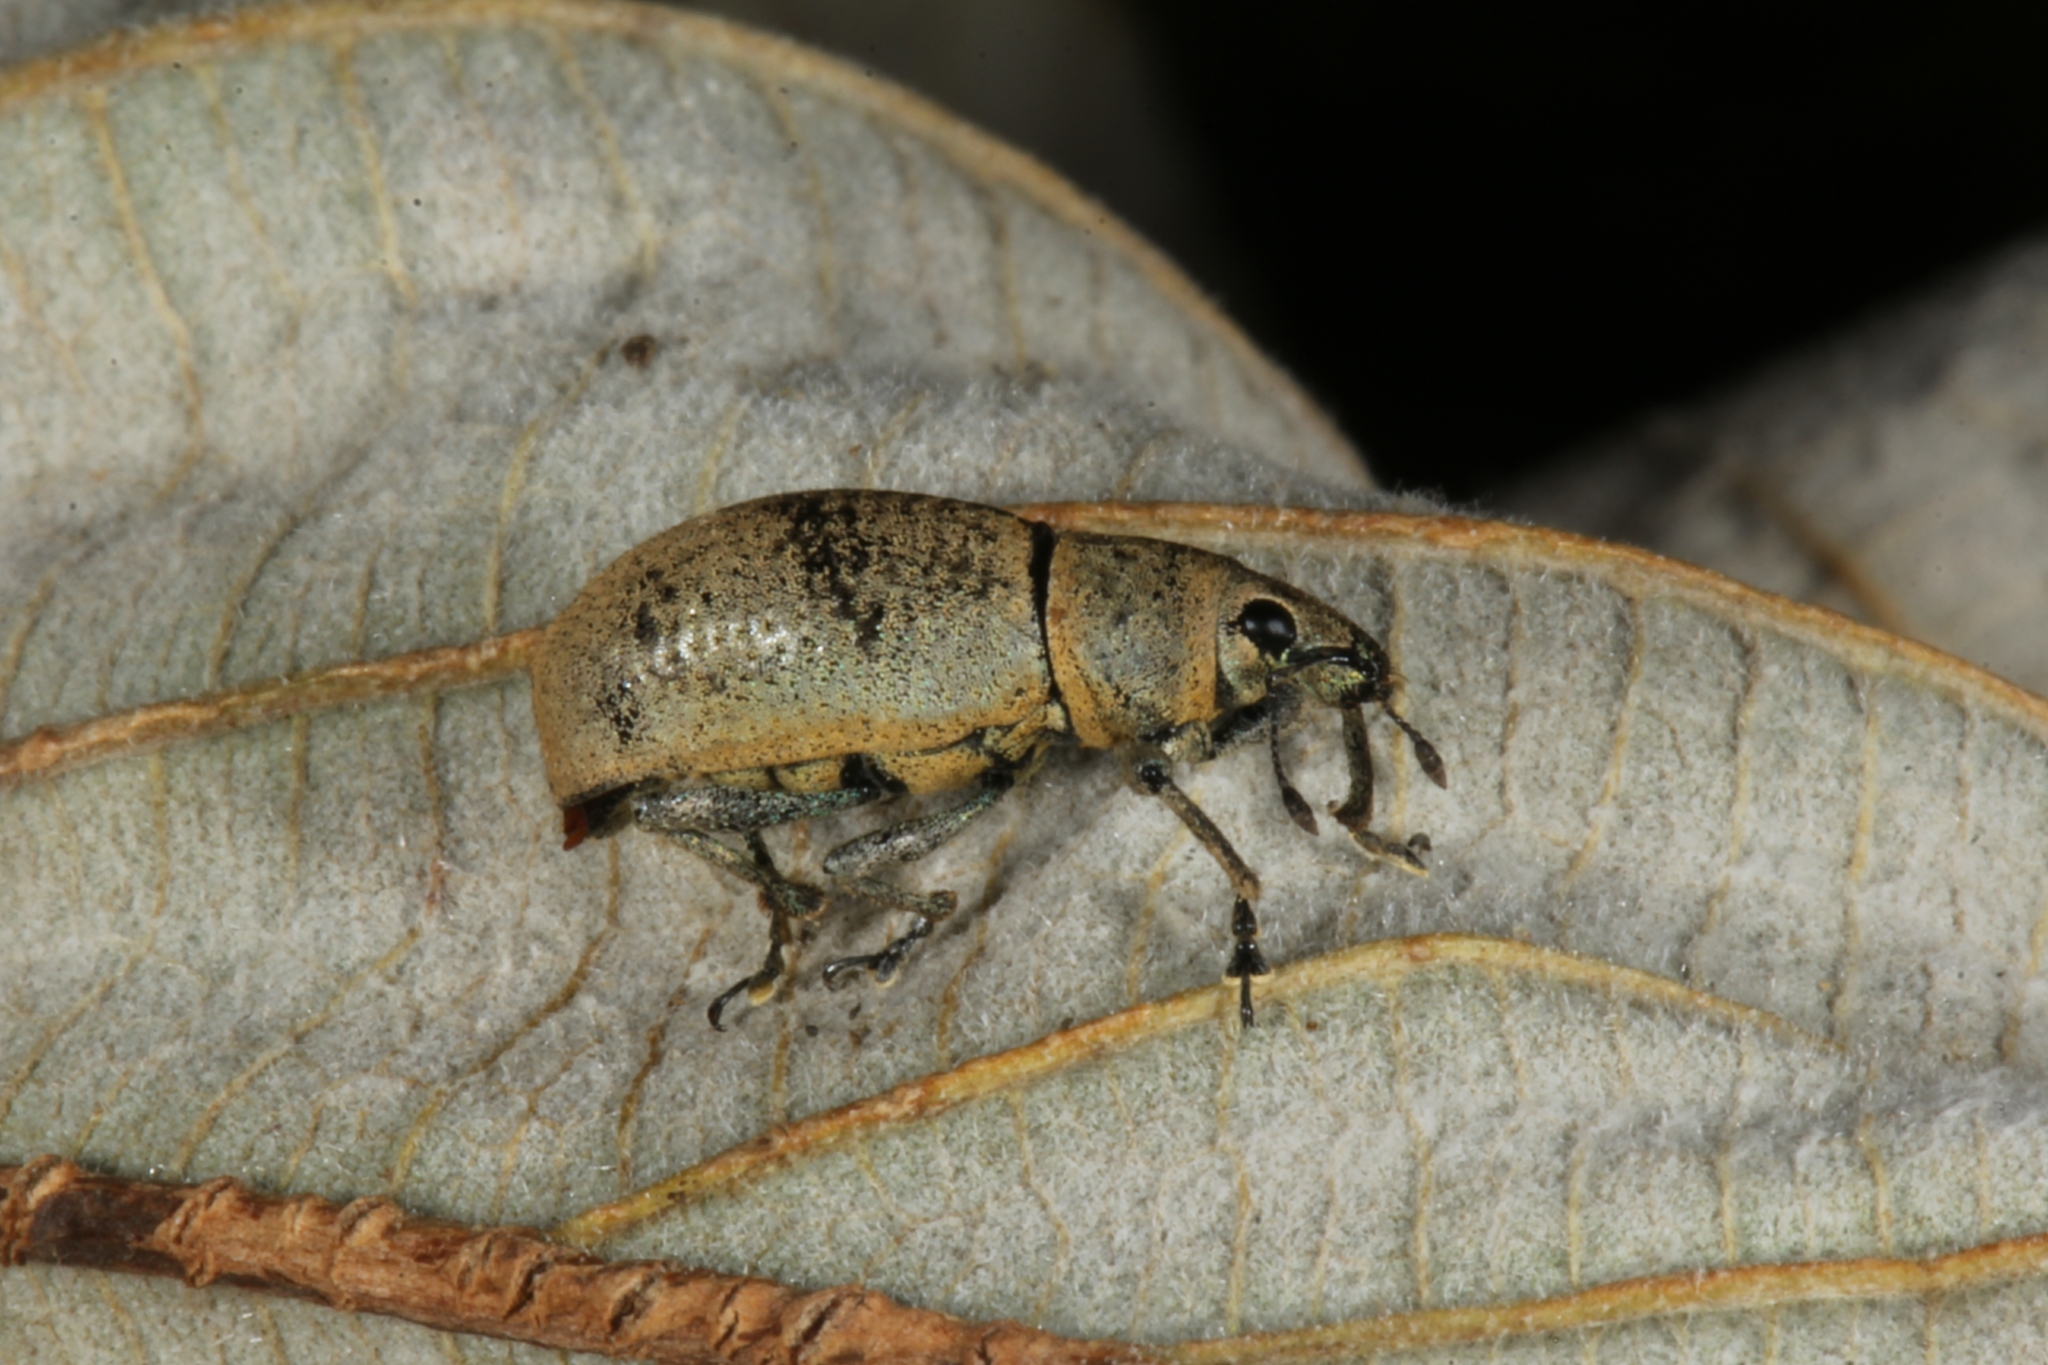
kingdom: Animalia
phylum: Arthropoda
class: Insecta
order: Coleoptera
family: Curculionidae
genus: Cleistolophus
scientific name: Cleistolophus similis
